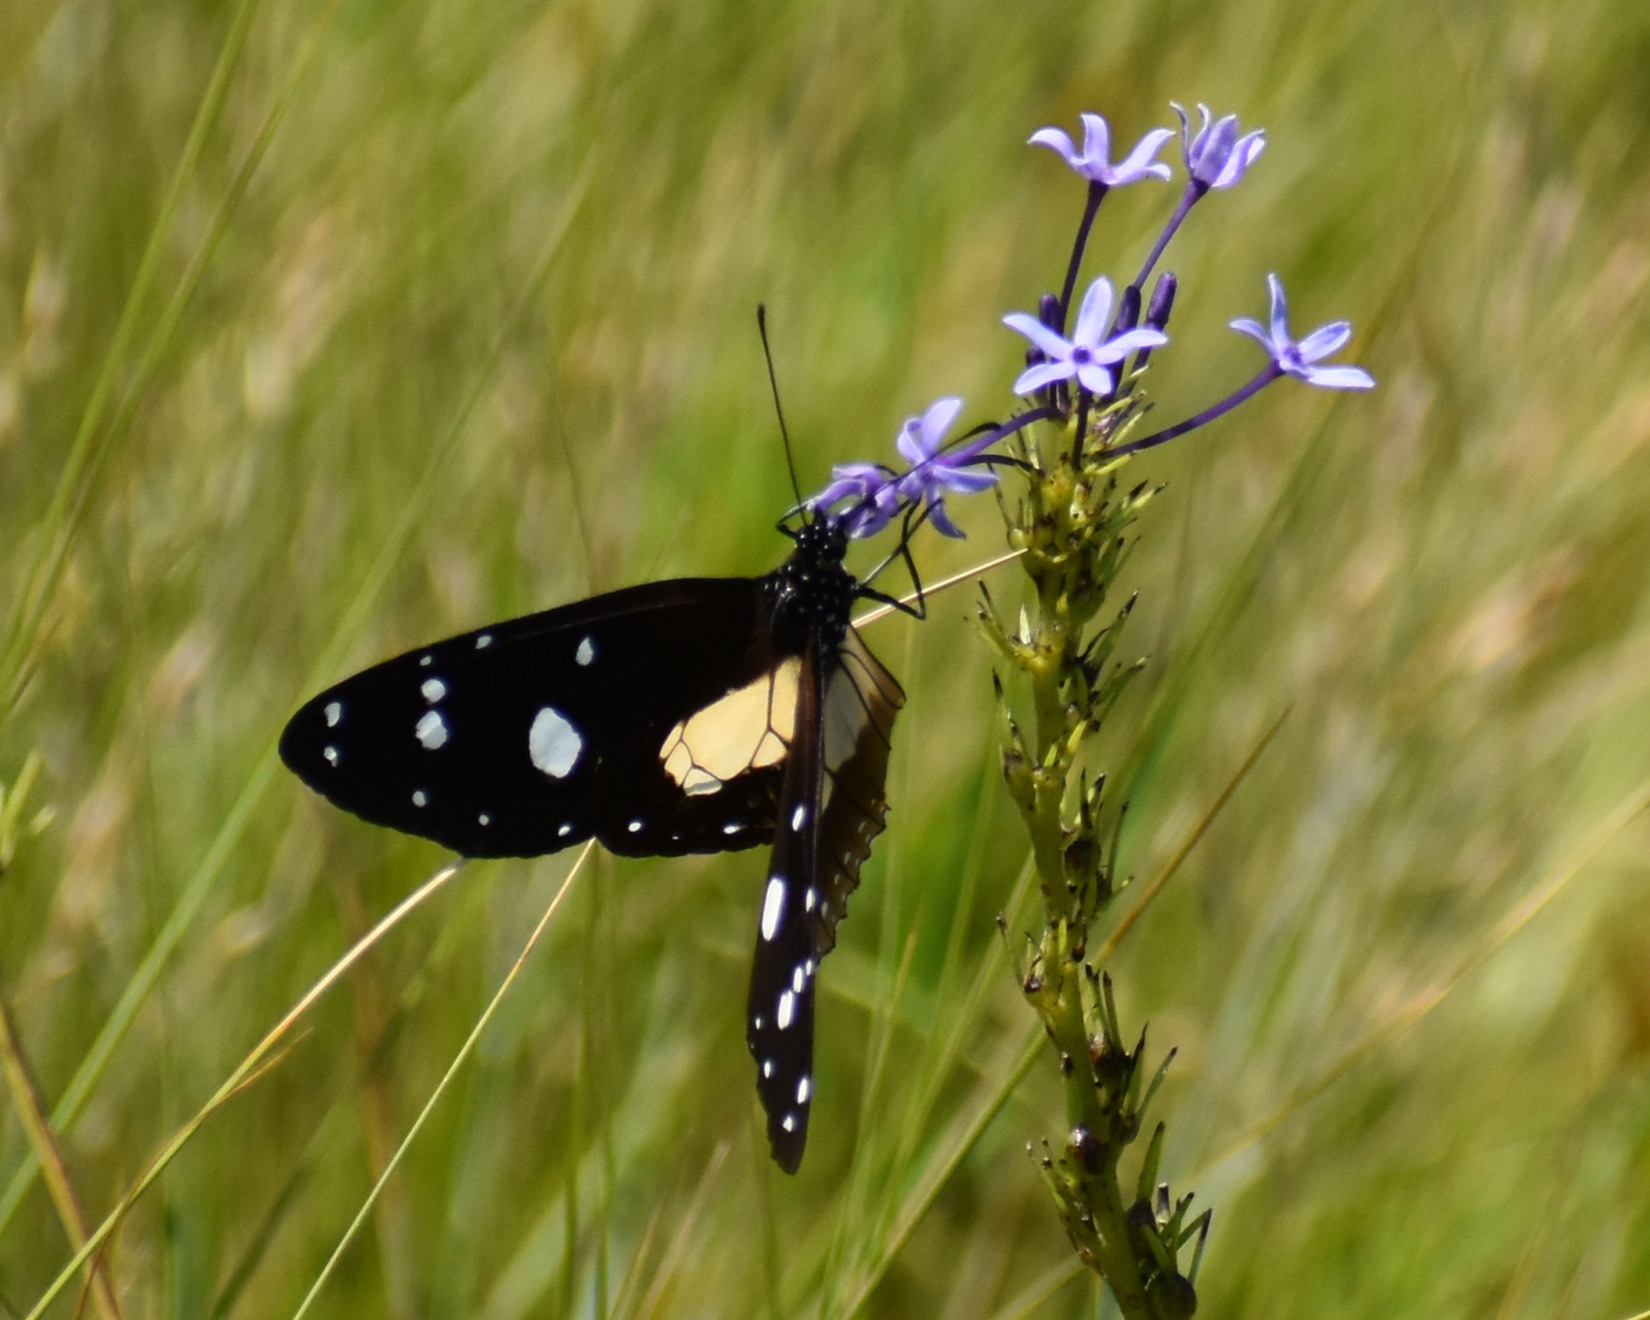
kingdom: Animalia
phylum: Arthropoda
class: Insecta
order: Lepidoptera
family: Nymphalidae
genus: Amauris
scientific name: Amauris albimaculata
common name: Layman
